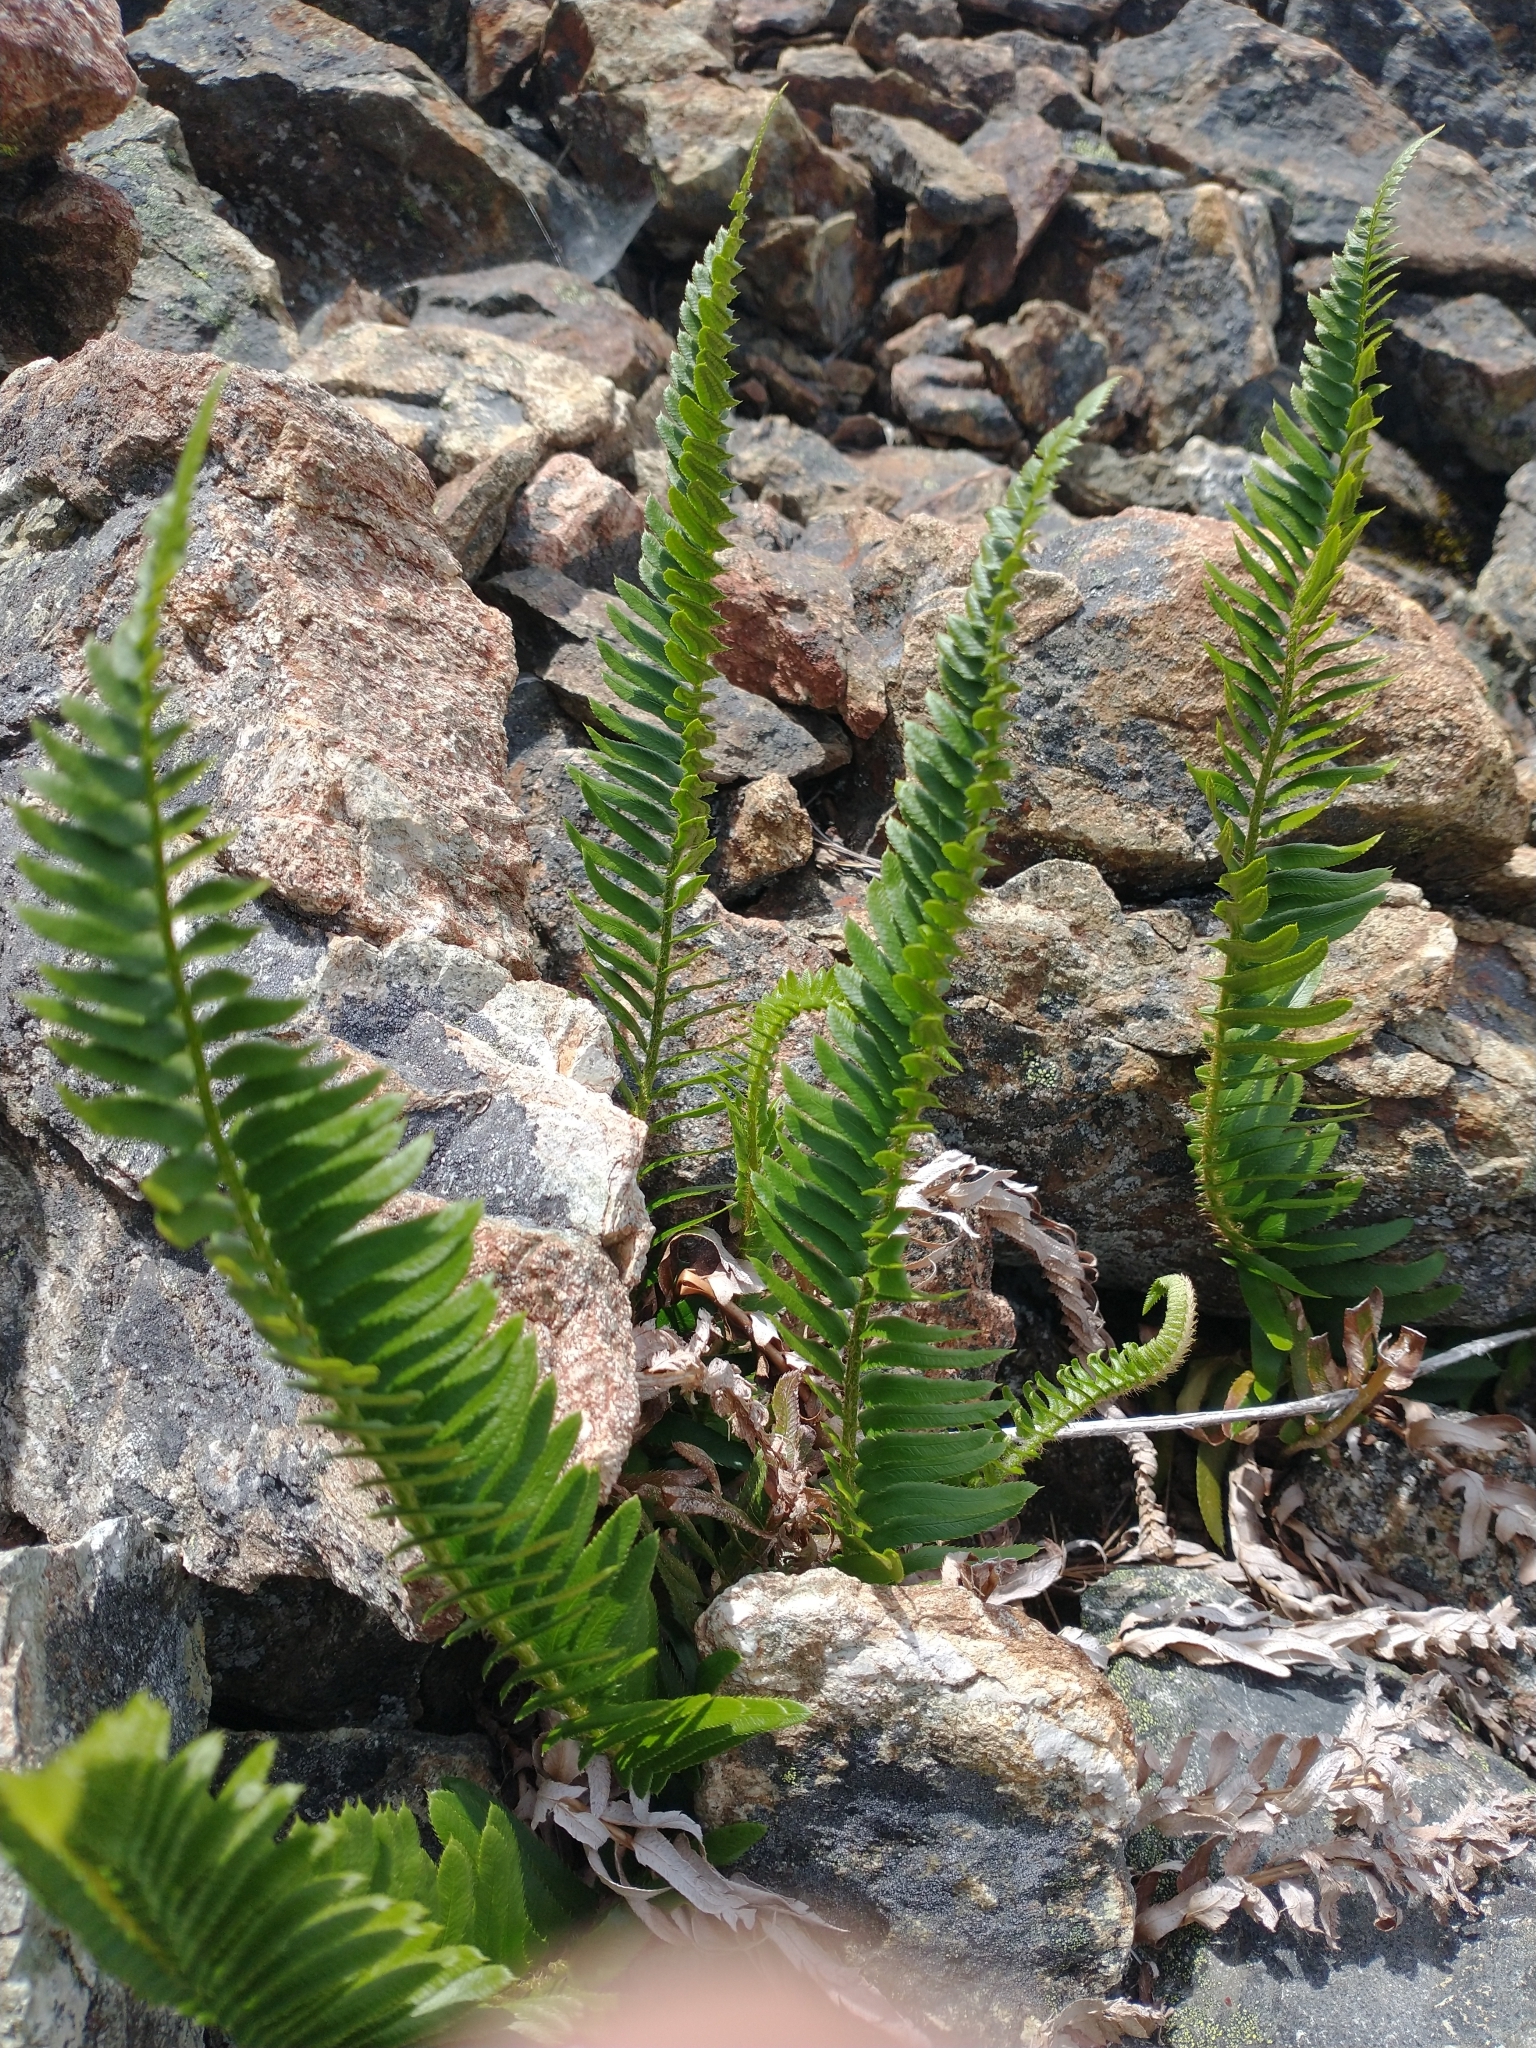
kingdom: Plantae
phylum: Tracheophyta
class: Polypodiopsida
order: Polypodiales
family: Dryopteridaceae
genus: Polystichum
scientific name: Polystichum imbricans
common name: Dwarf western sword fern
